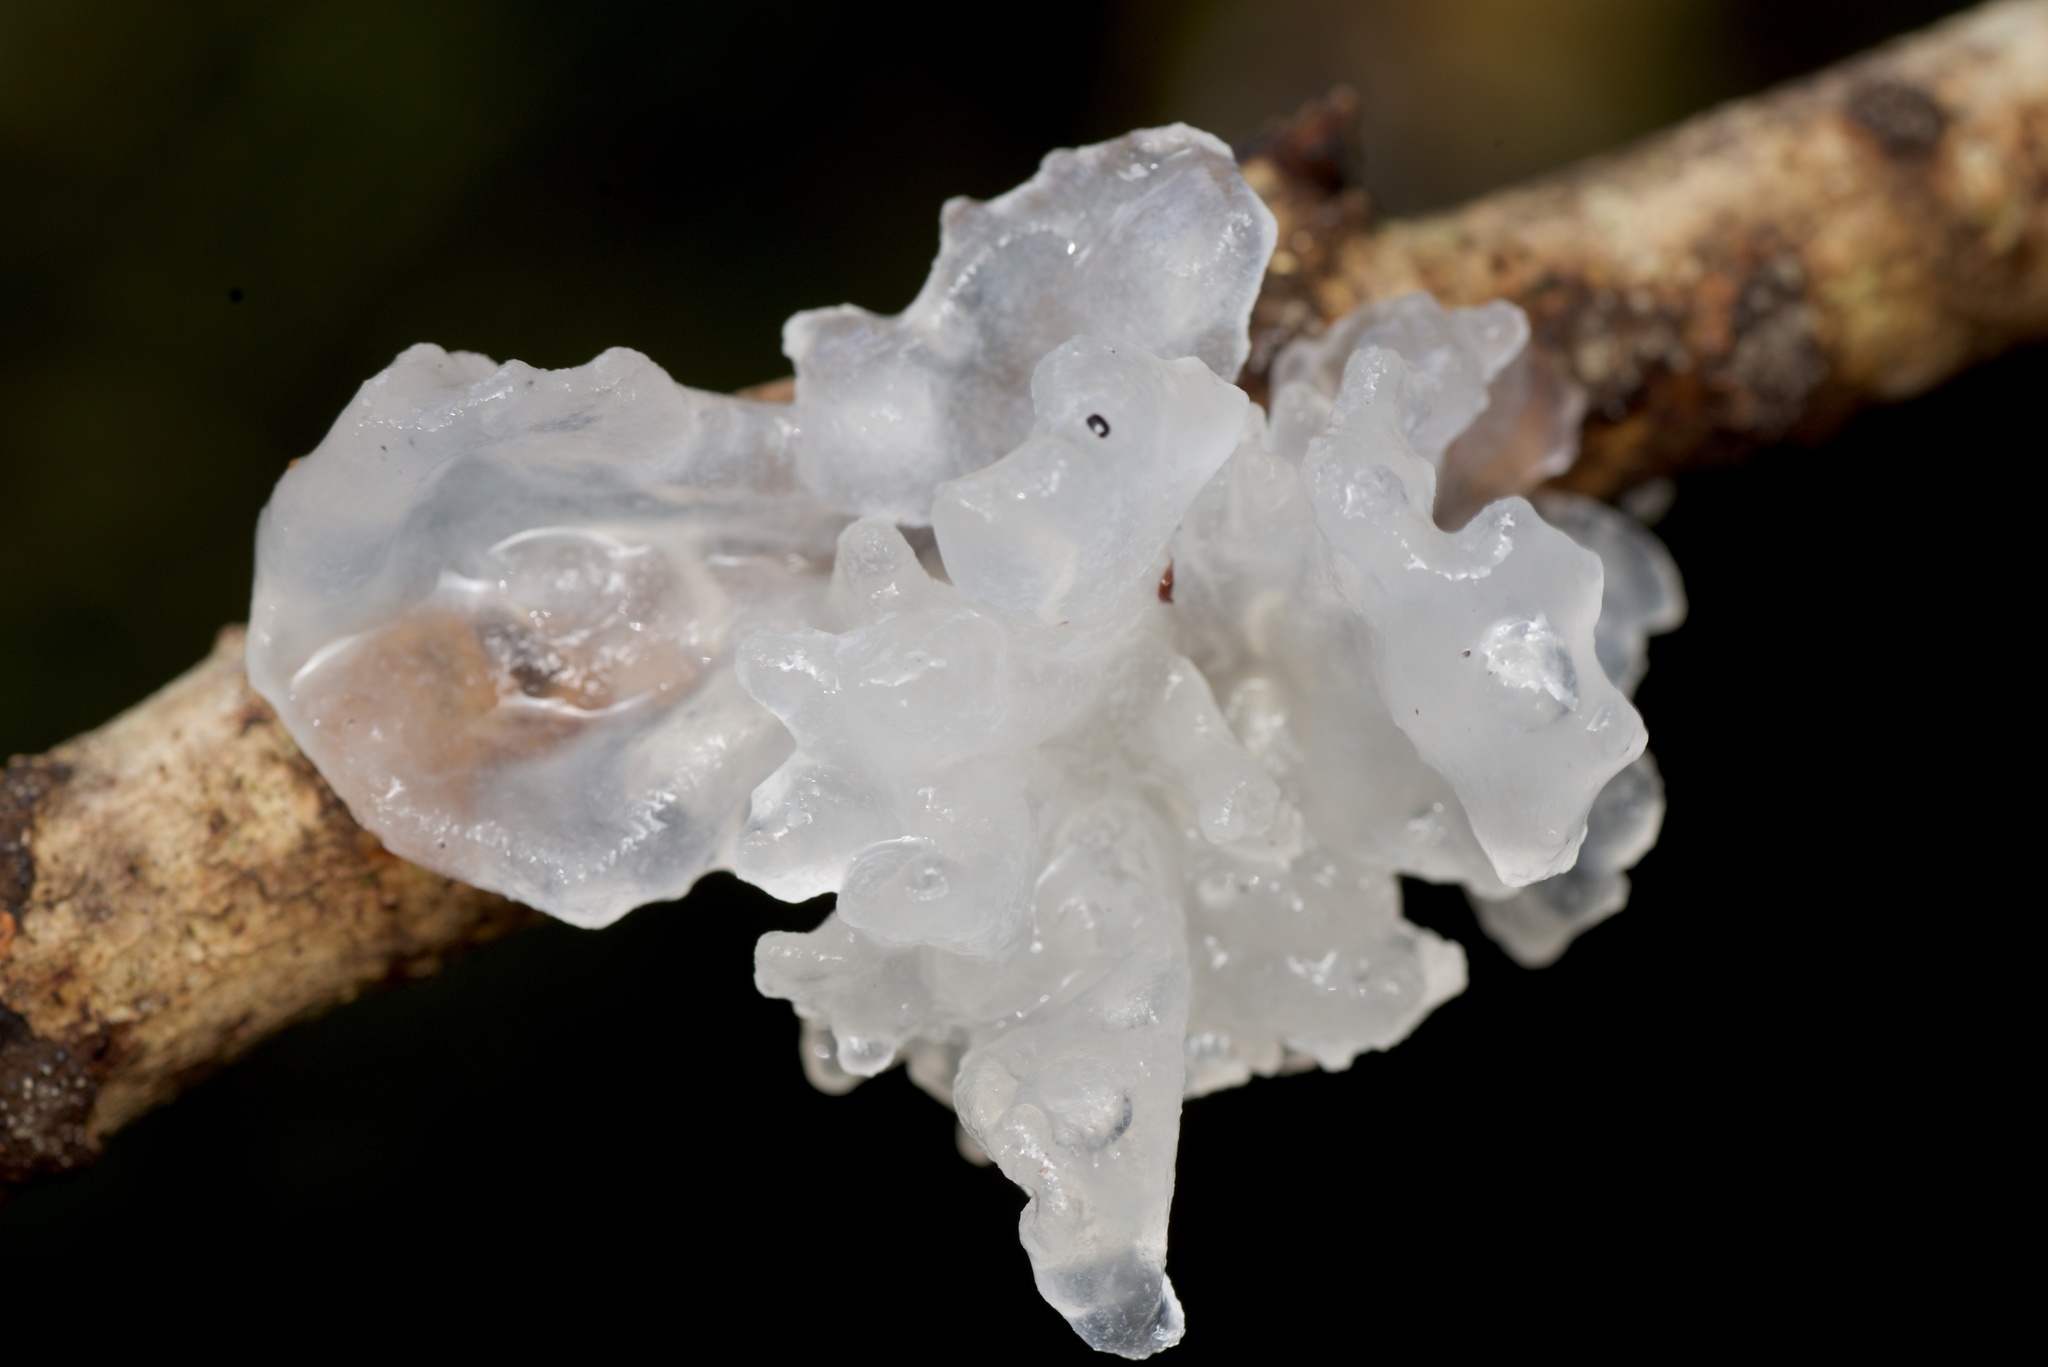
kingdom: Fungi
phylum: Basidiomycota
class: Tremellomycetes
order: Tremellales
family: Tremellaceae
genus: Tremella
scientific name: Tremella fuciformis
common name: Snow fungus
